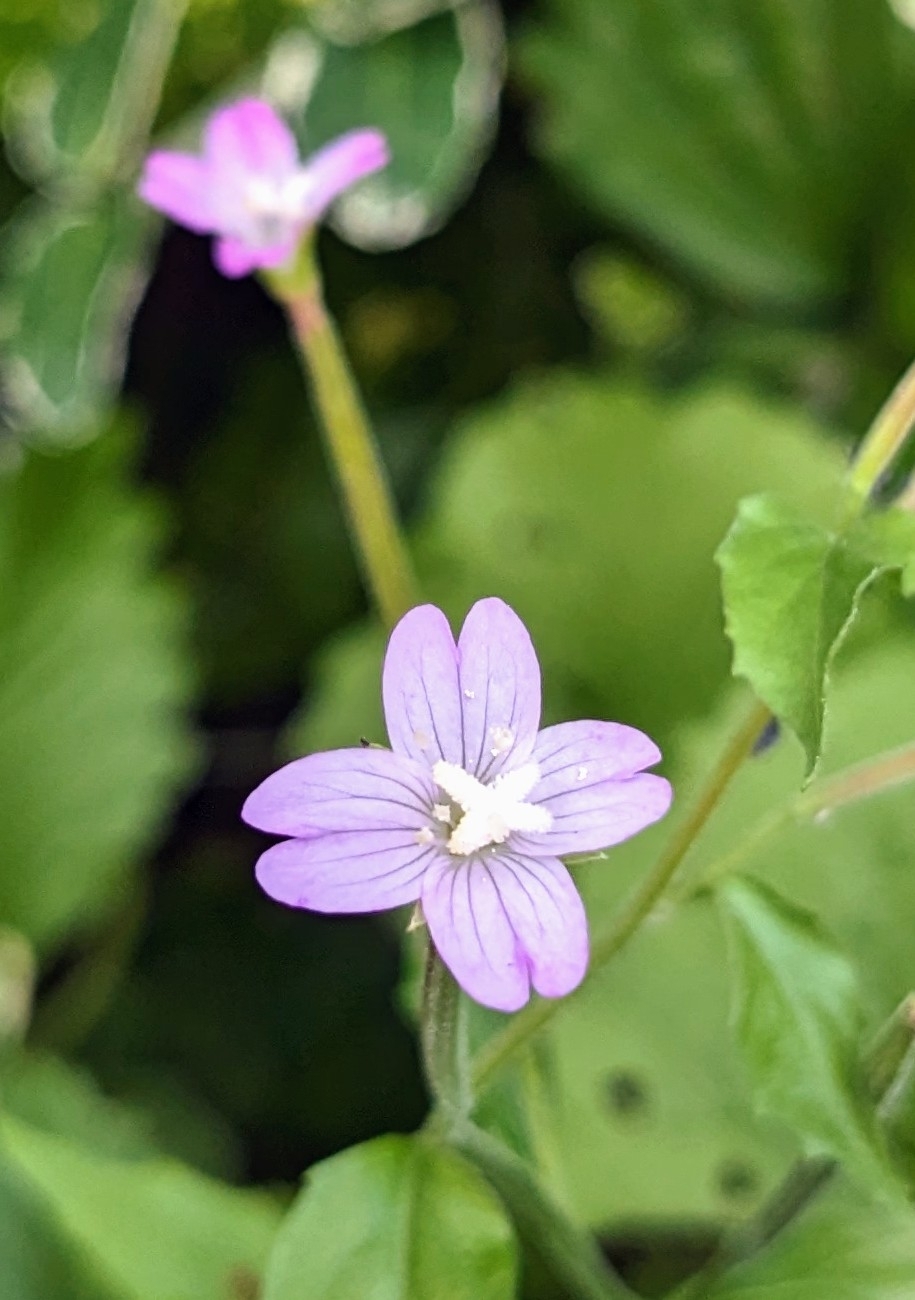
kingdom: Plantae
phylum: Tracheophyta
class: Magnoliopsida
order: Myrtales
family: Onagraceae
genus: Epilobium
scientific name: Epilobium montanum
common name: Broad-leaved willowherb
